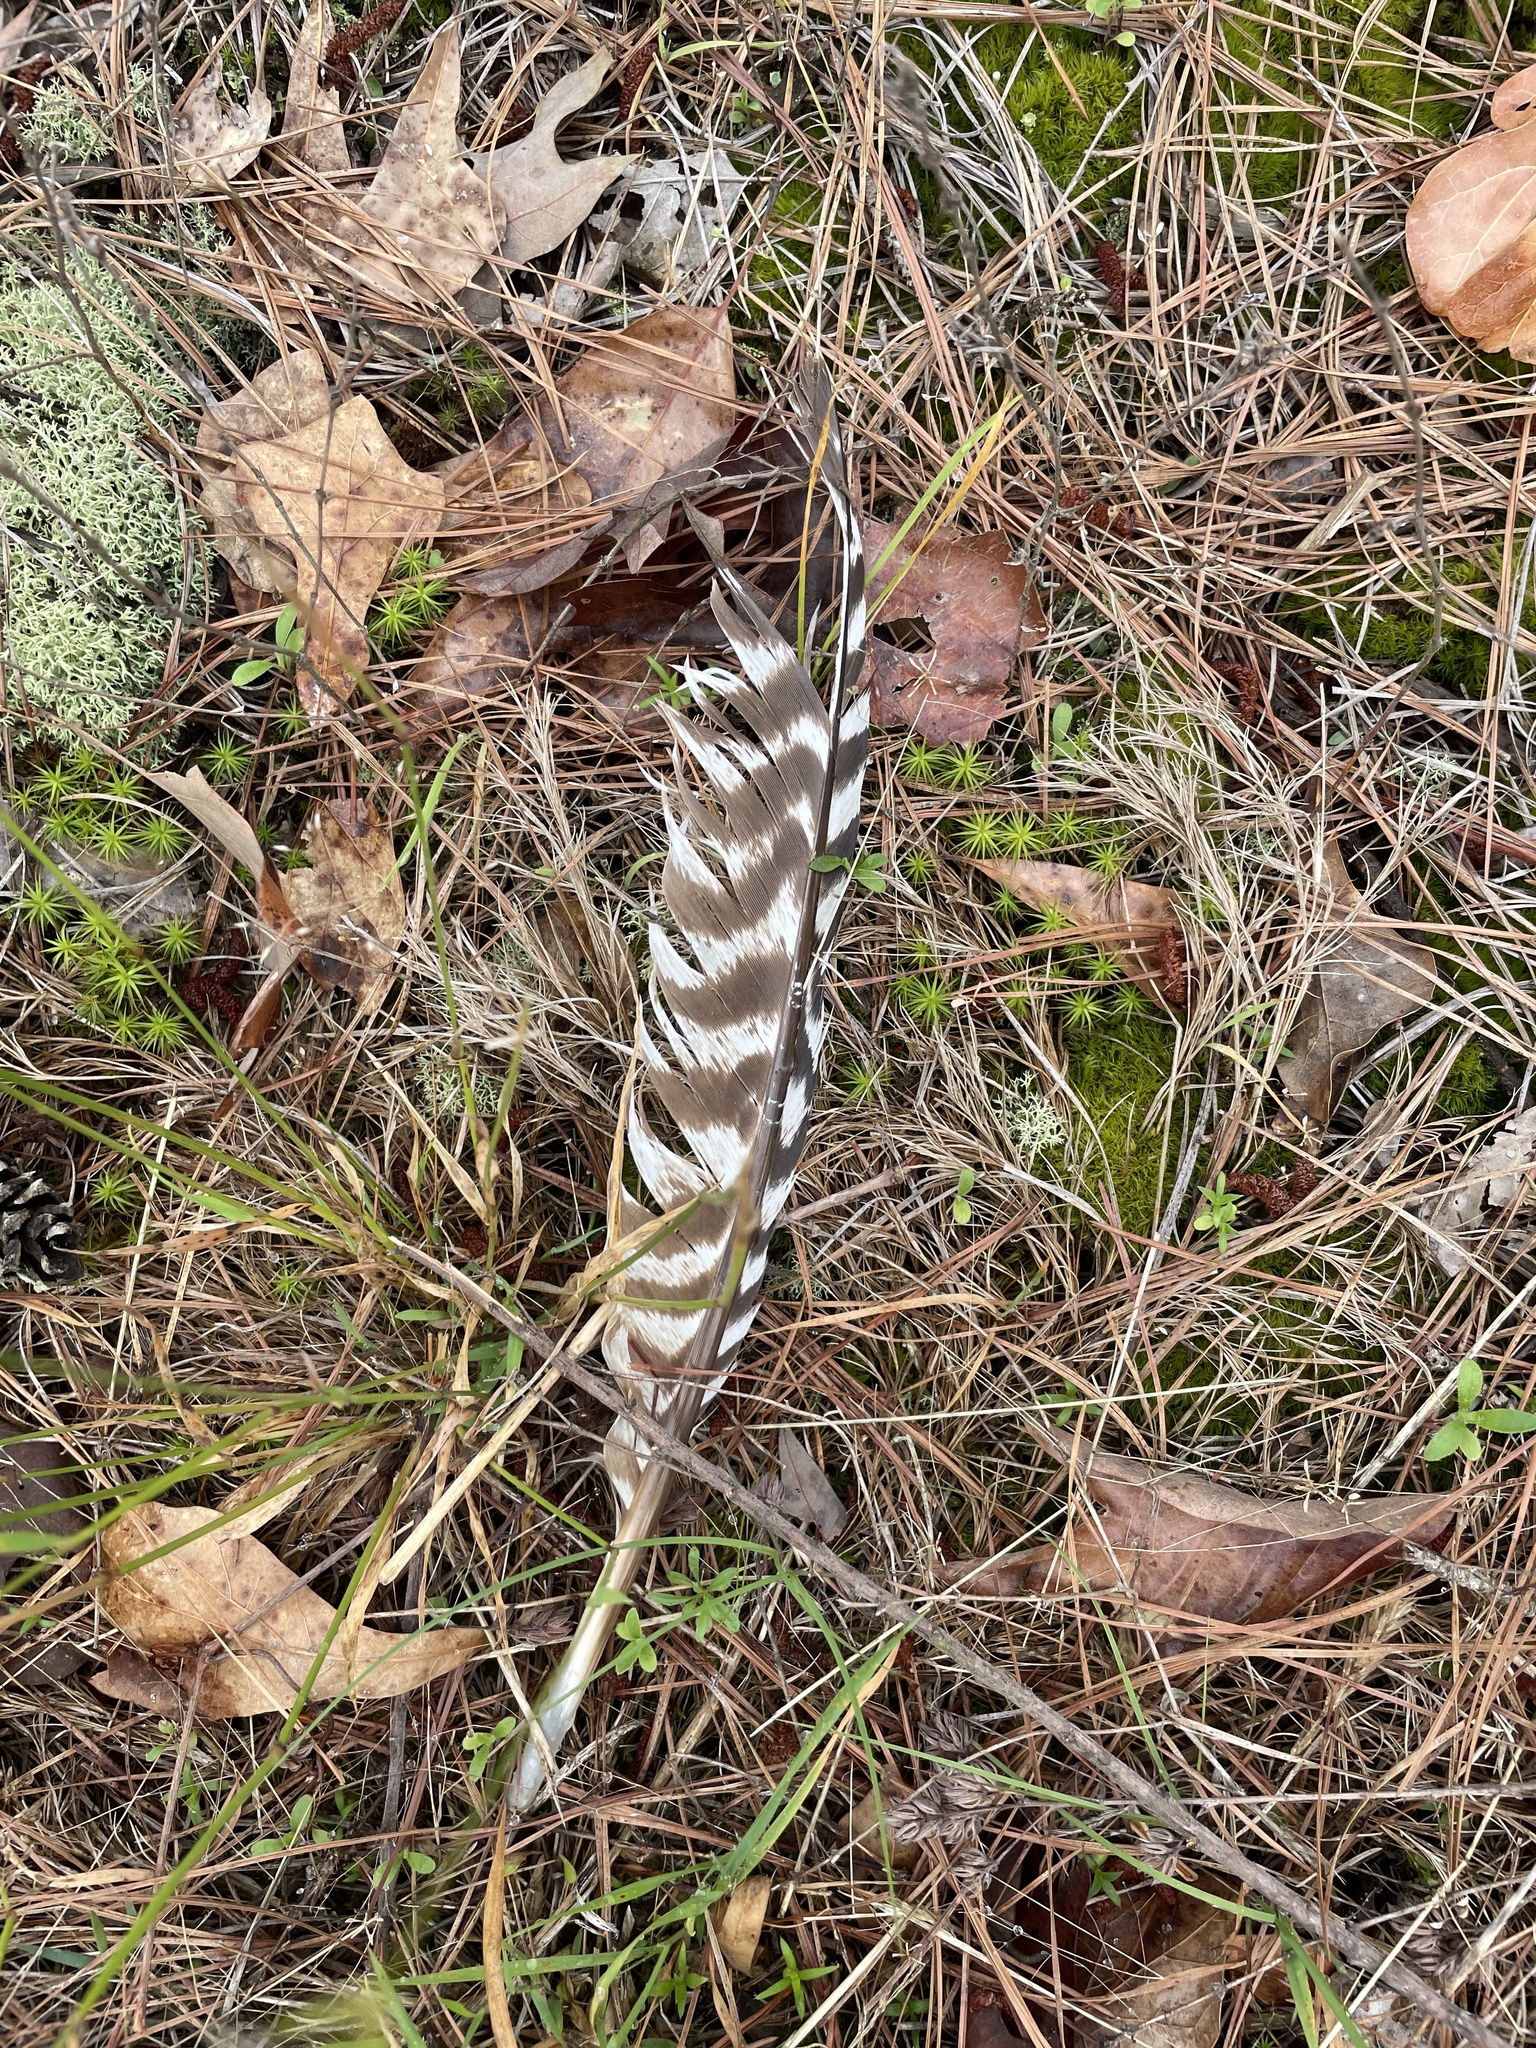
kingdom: Animalia
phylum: Chordata
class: Aves
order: Galliformes
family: Phasianidae
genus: Meleagris
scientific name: Meleagris gallopavo
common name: Wild turkey
